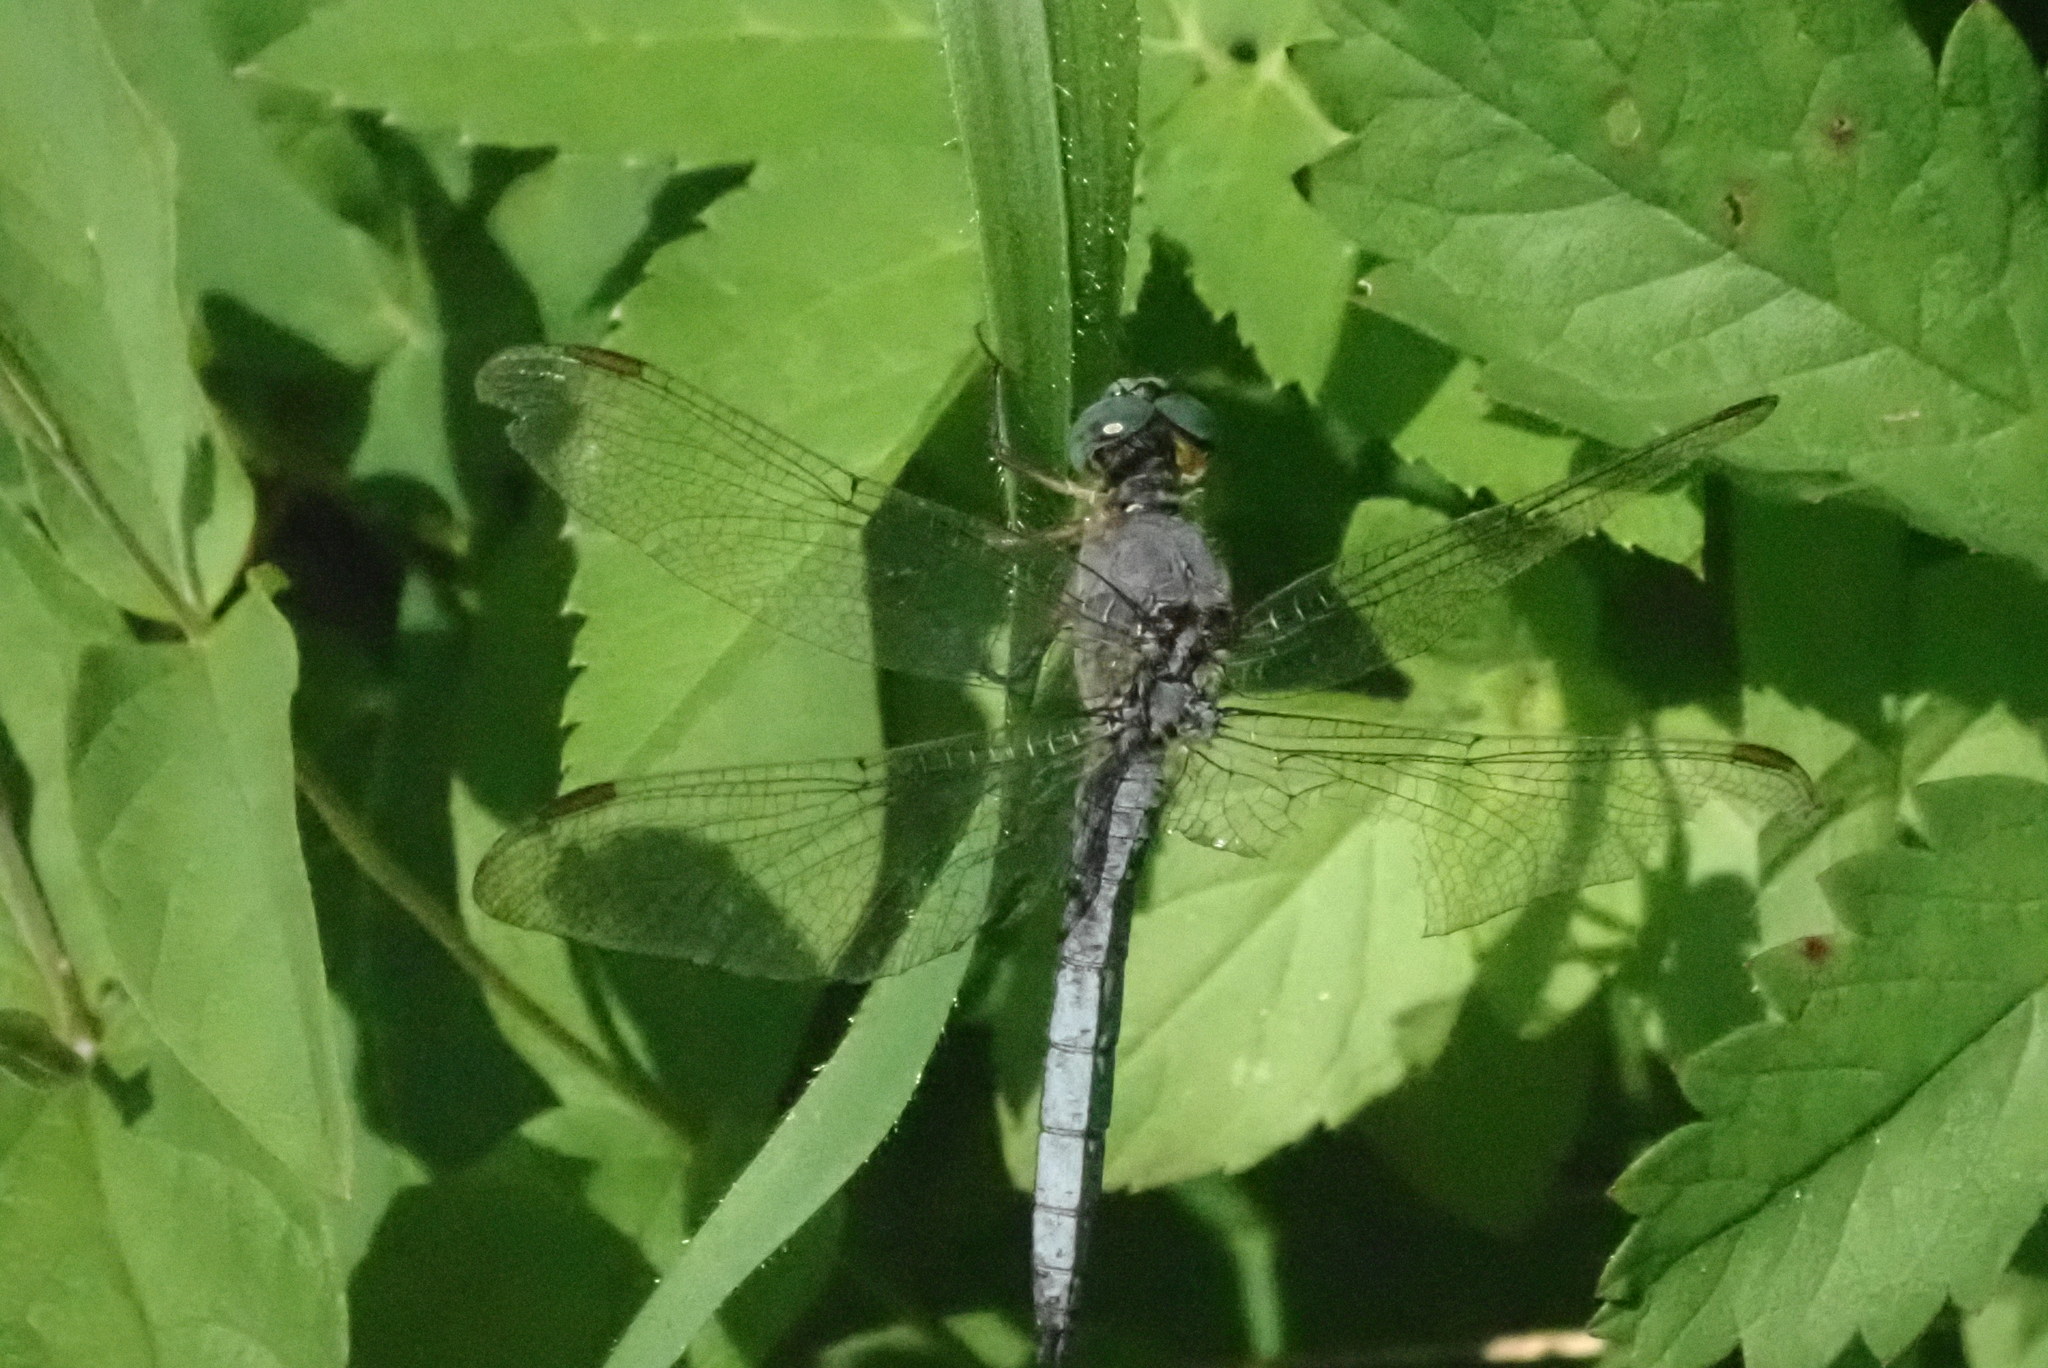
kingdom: Animalia
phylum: Arthropoda
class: Insecta
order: Odonata
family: Libellulidae
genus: Orthetrum
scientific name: Orthetrum coerulescens
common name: Keeled skimmer
